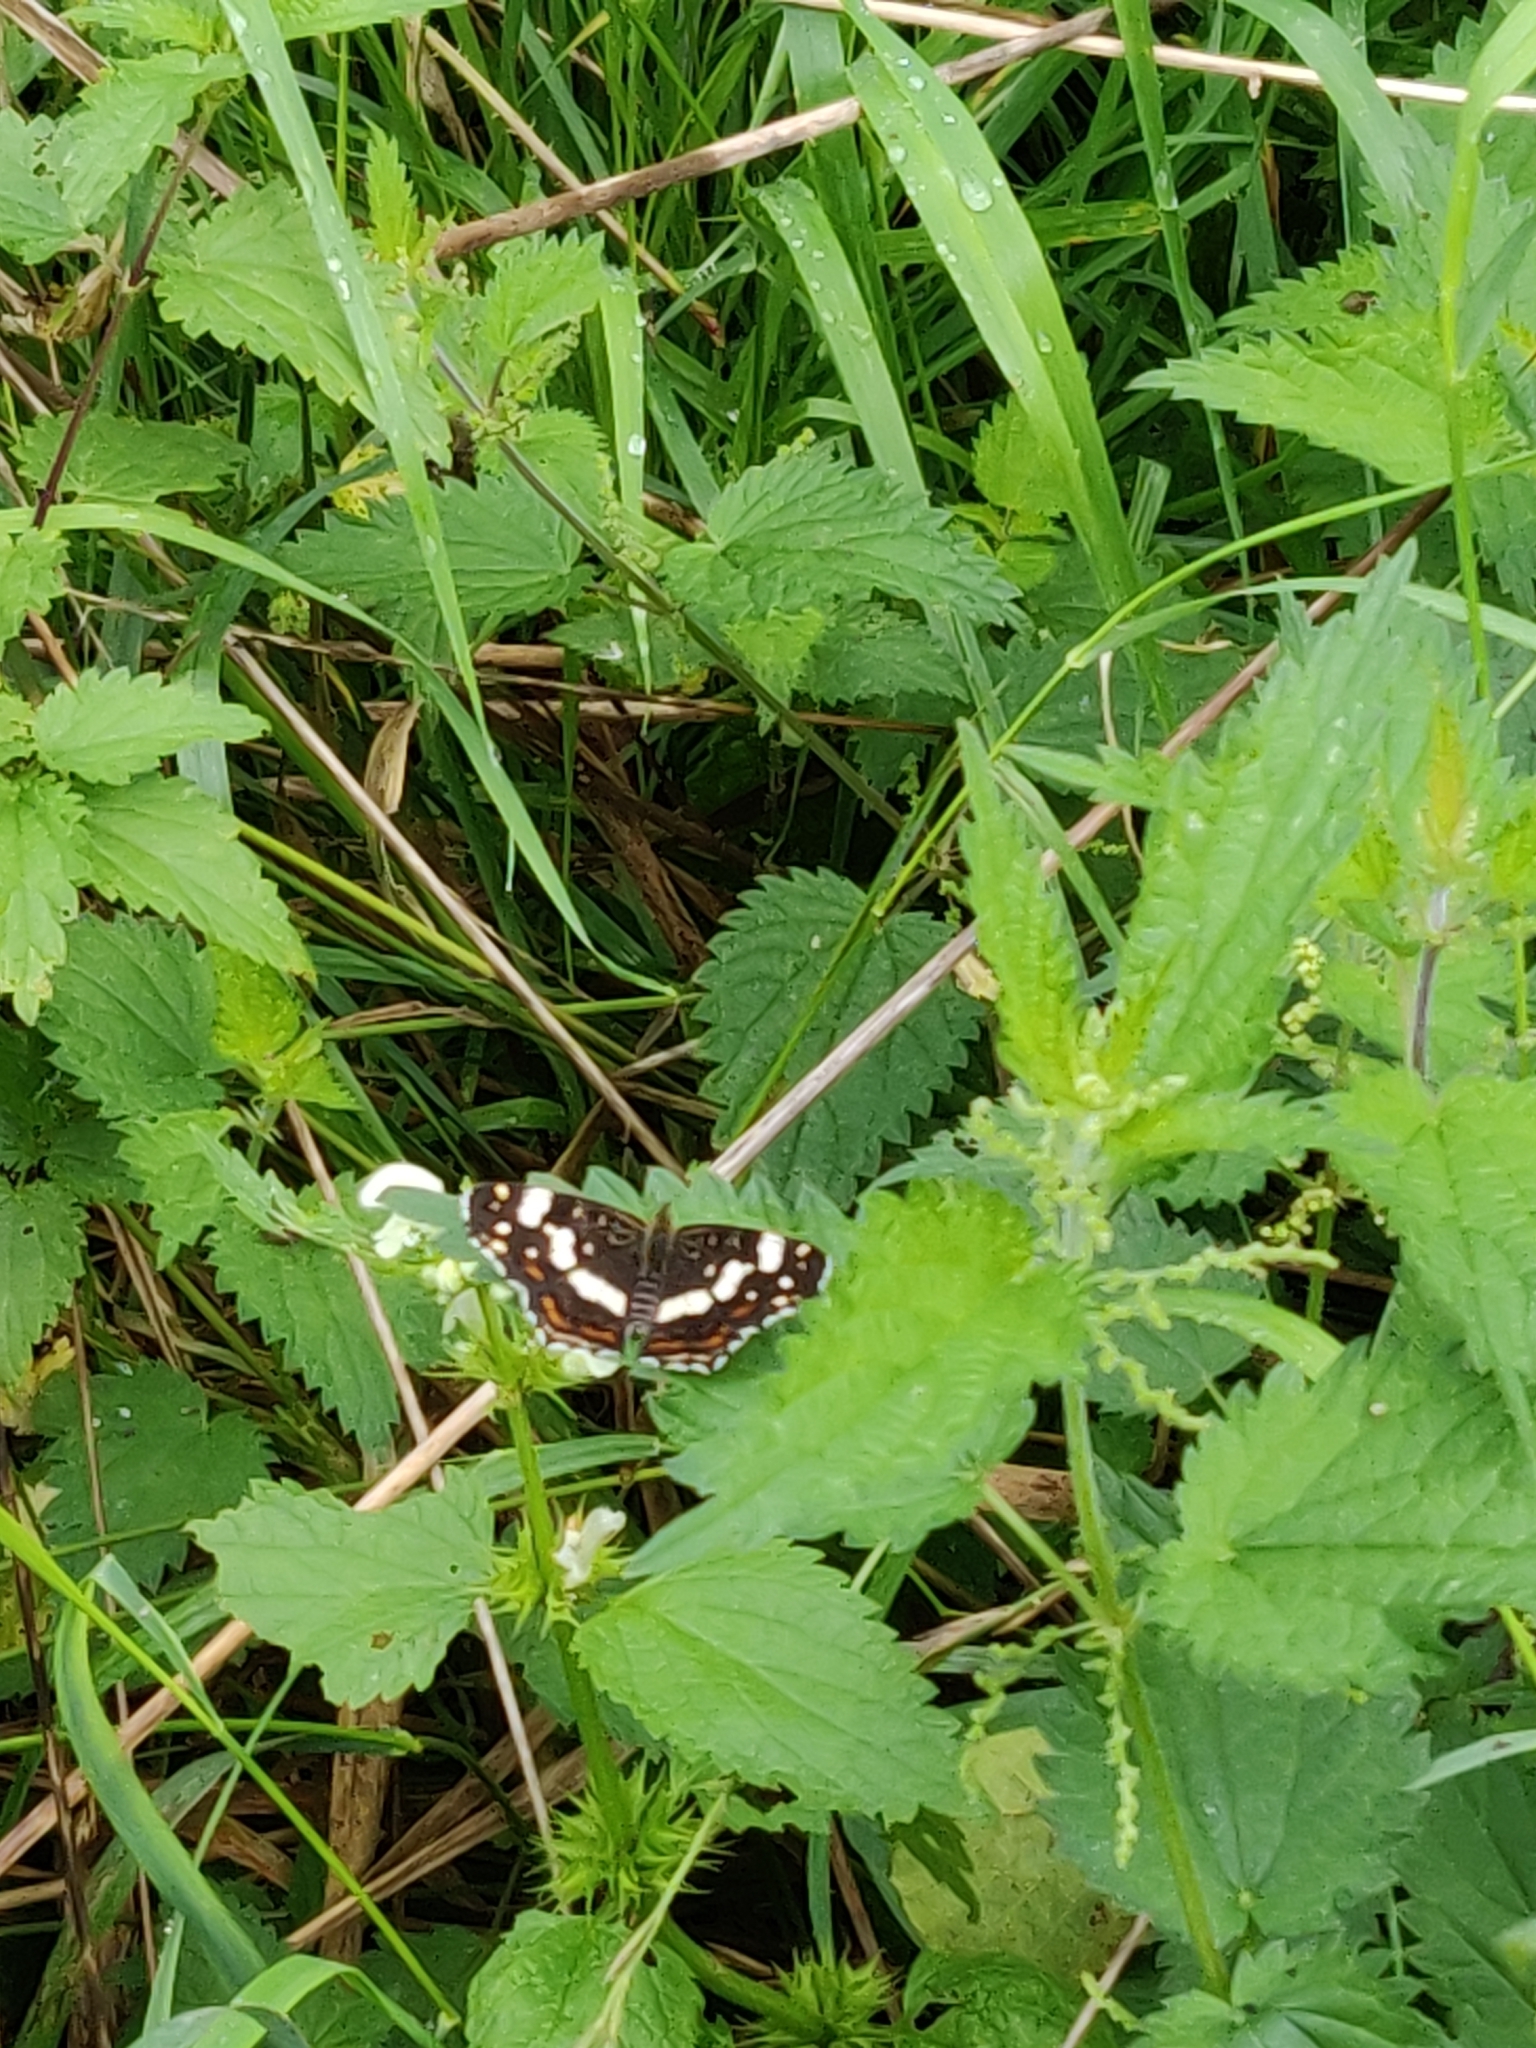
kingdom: Animalia
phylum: Arthropoda
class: Insecta
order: Lepidoptera
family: Nymphalidae
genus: Araschnia
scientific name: Araschnia levana
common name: Map butterfly
